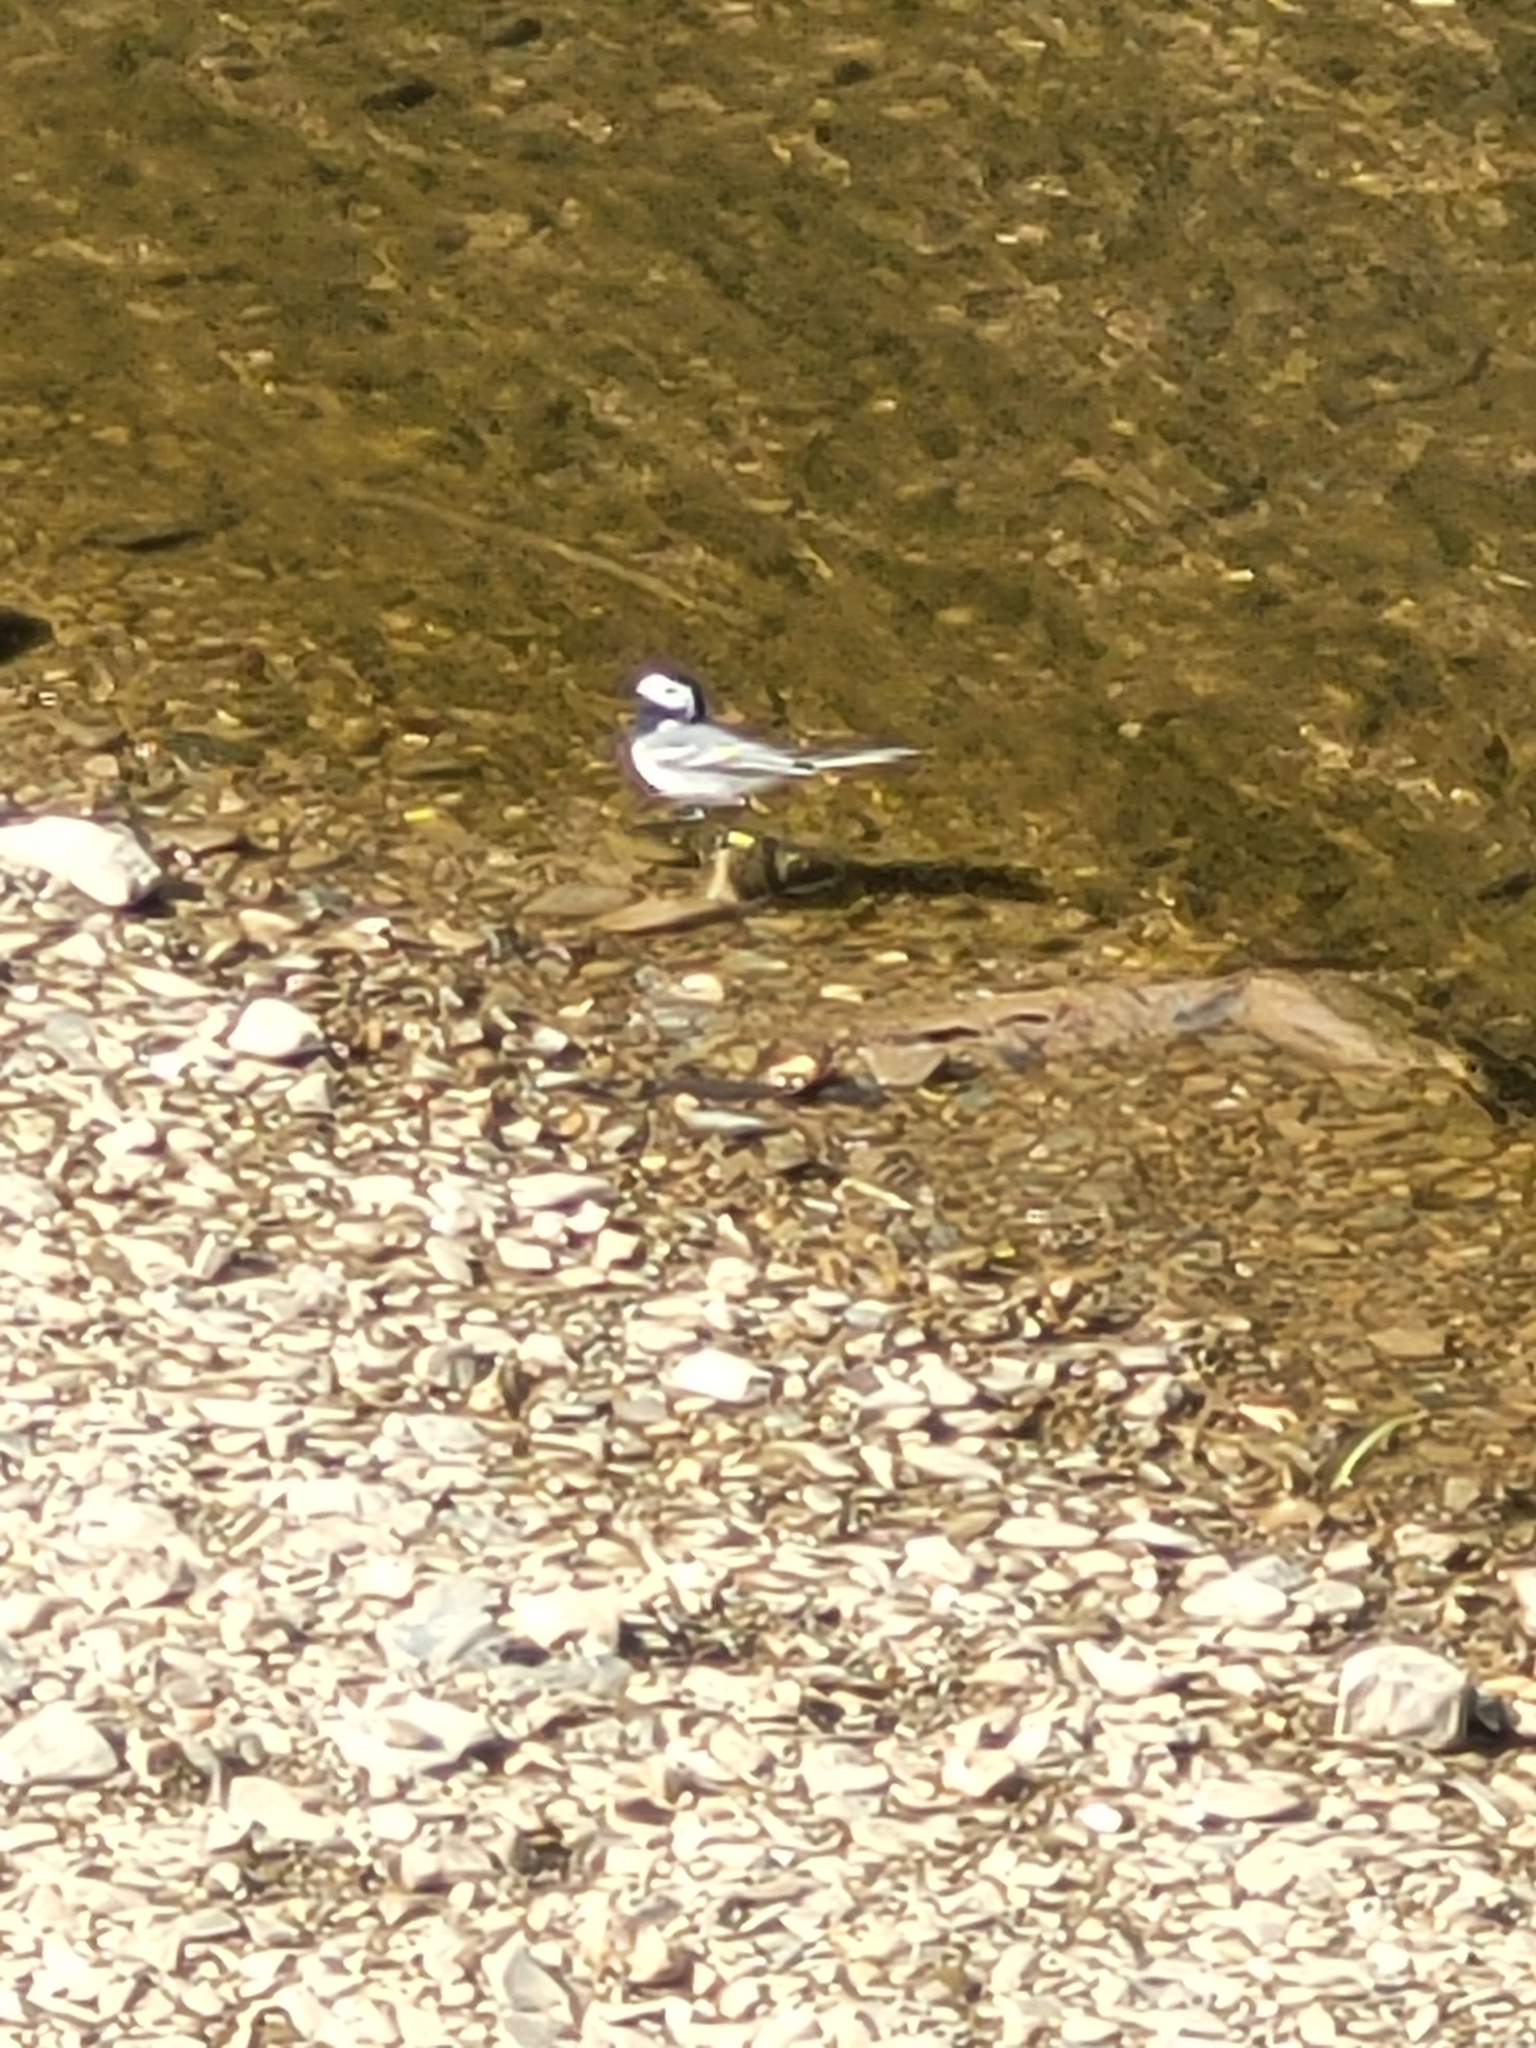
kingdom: Animalia
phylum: Chordata
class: Aves
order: Passeriformes
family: Motacillidae
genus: Motacilla
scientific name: Motacilla alba
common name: White wagtail
